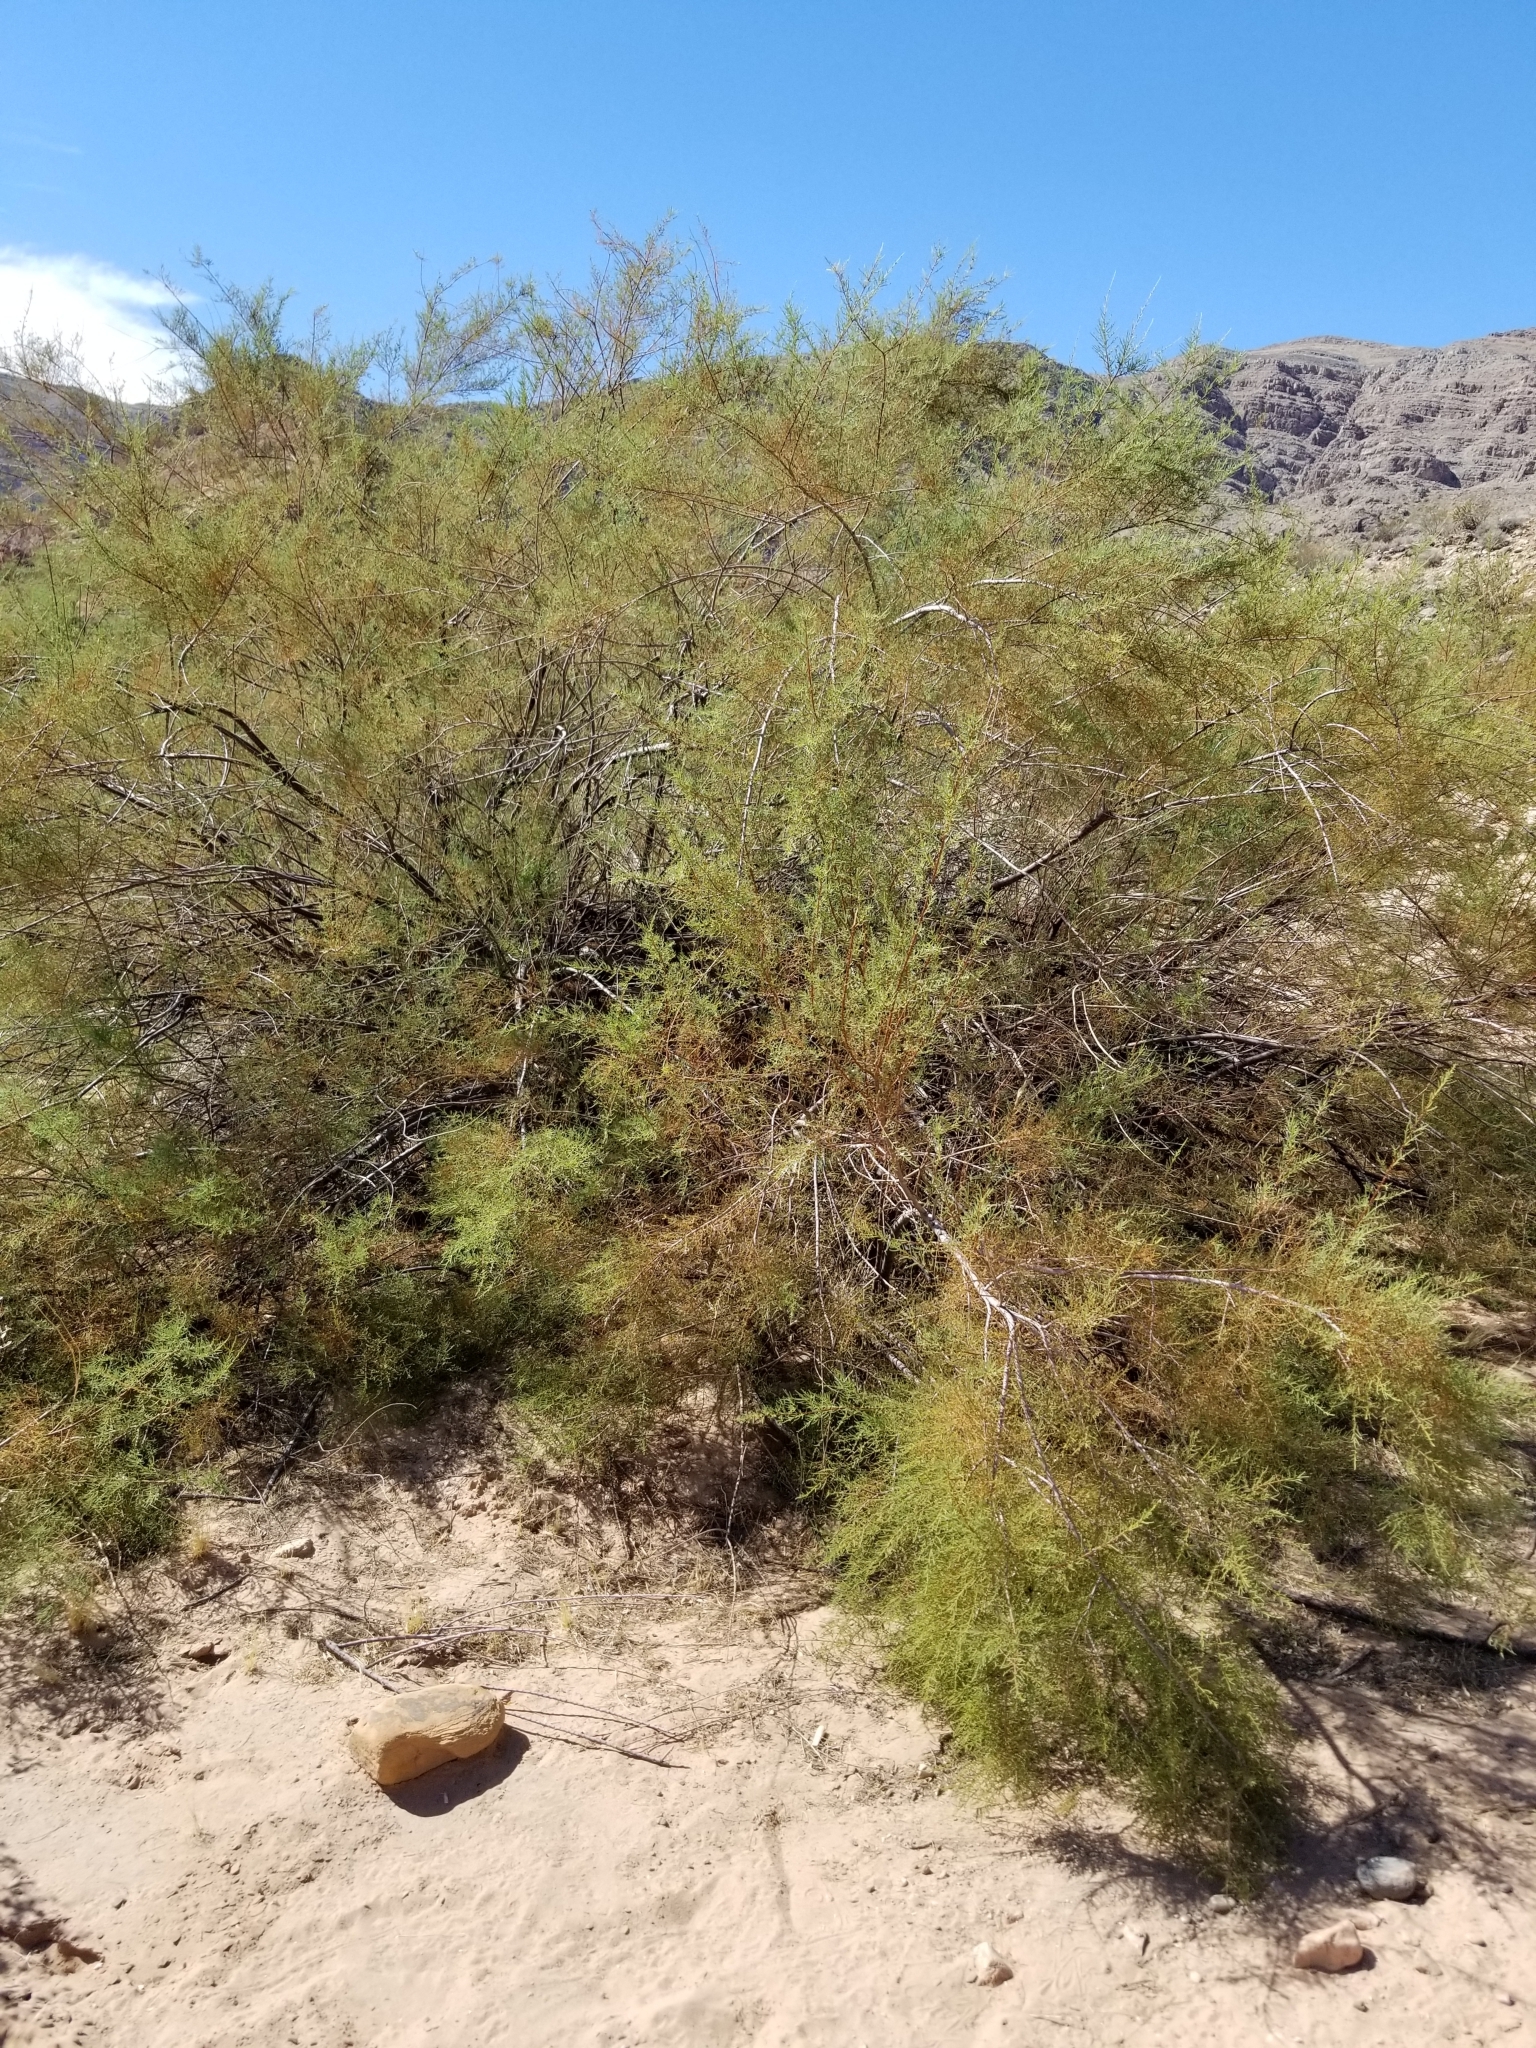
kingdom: Plantae
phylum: Tracheophyta
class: Magnoliopsida
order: Caryophyllales
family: Tamaricaceae
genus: Tamarix
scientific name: Tamarix
